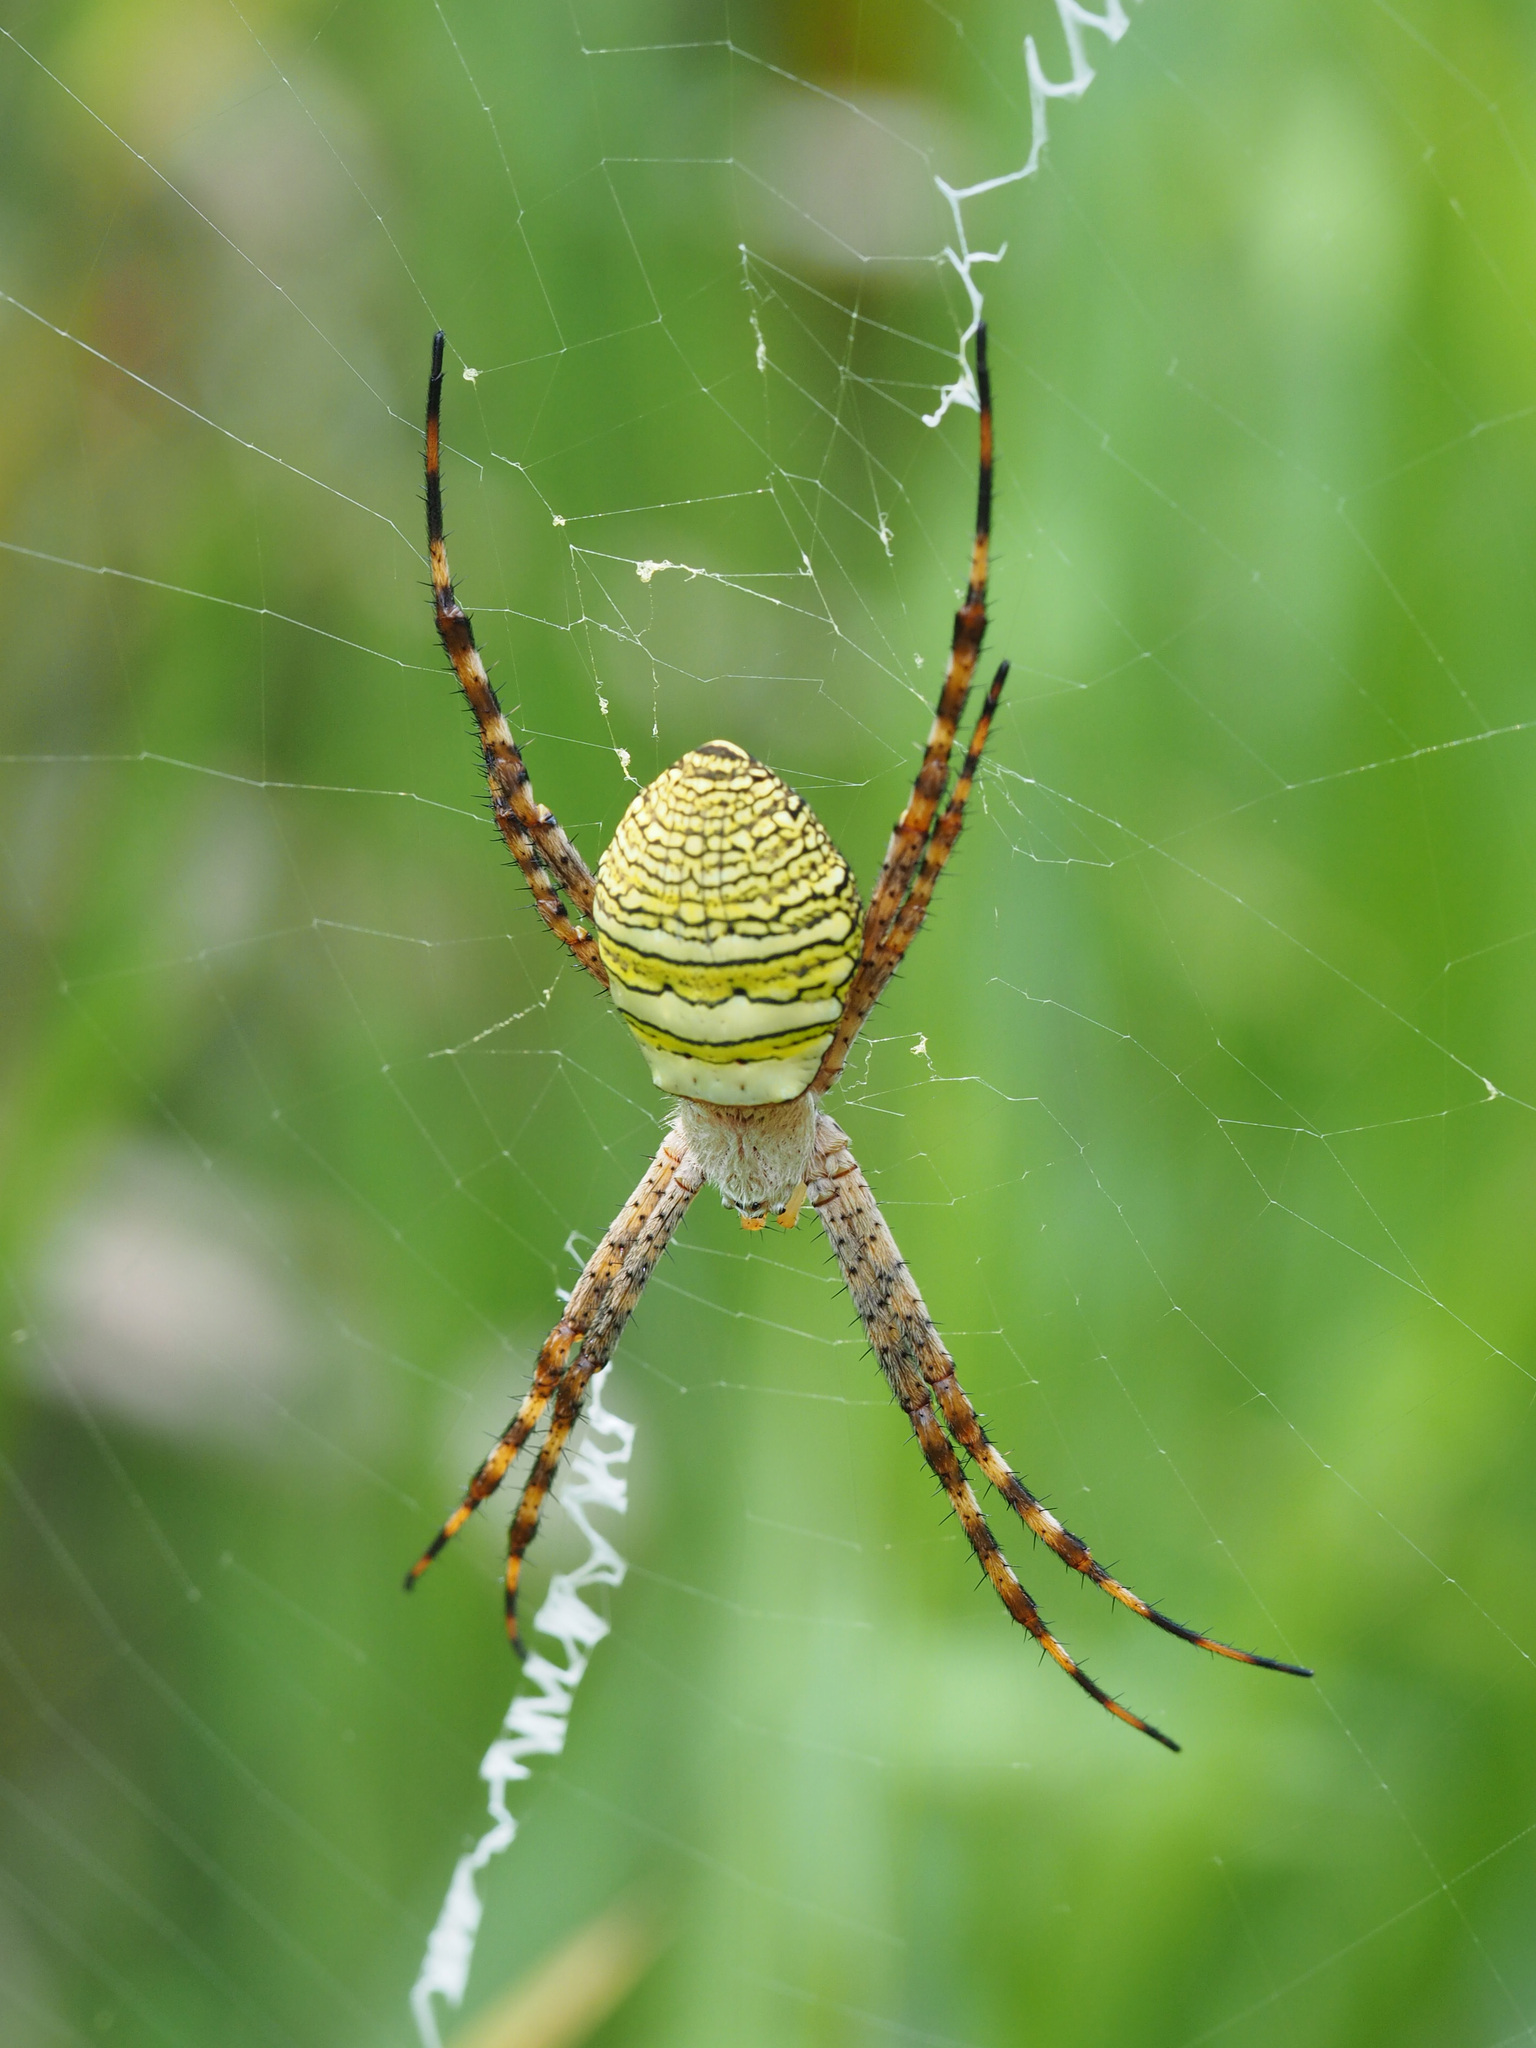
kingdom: Animalia
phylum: Arthropoda
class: Arachnida
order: Araneae
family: Araneidae
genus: Argiope
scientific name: Argiope aemula
